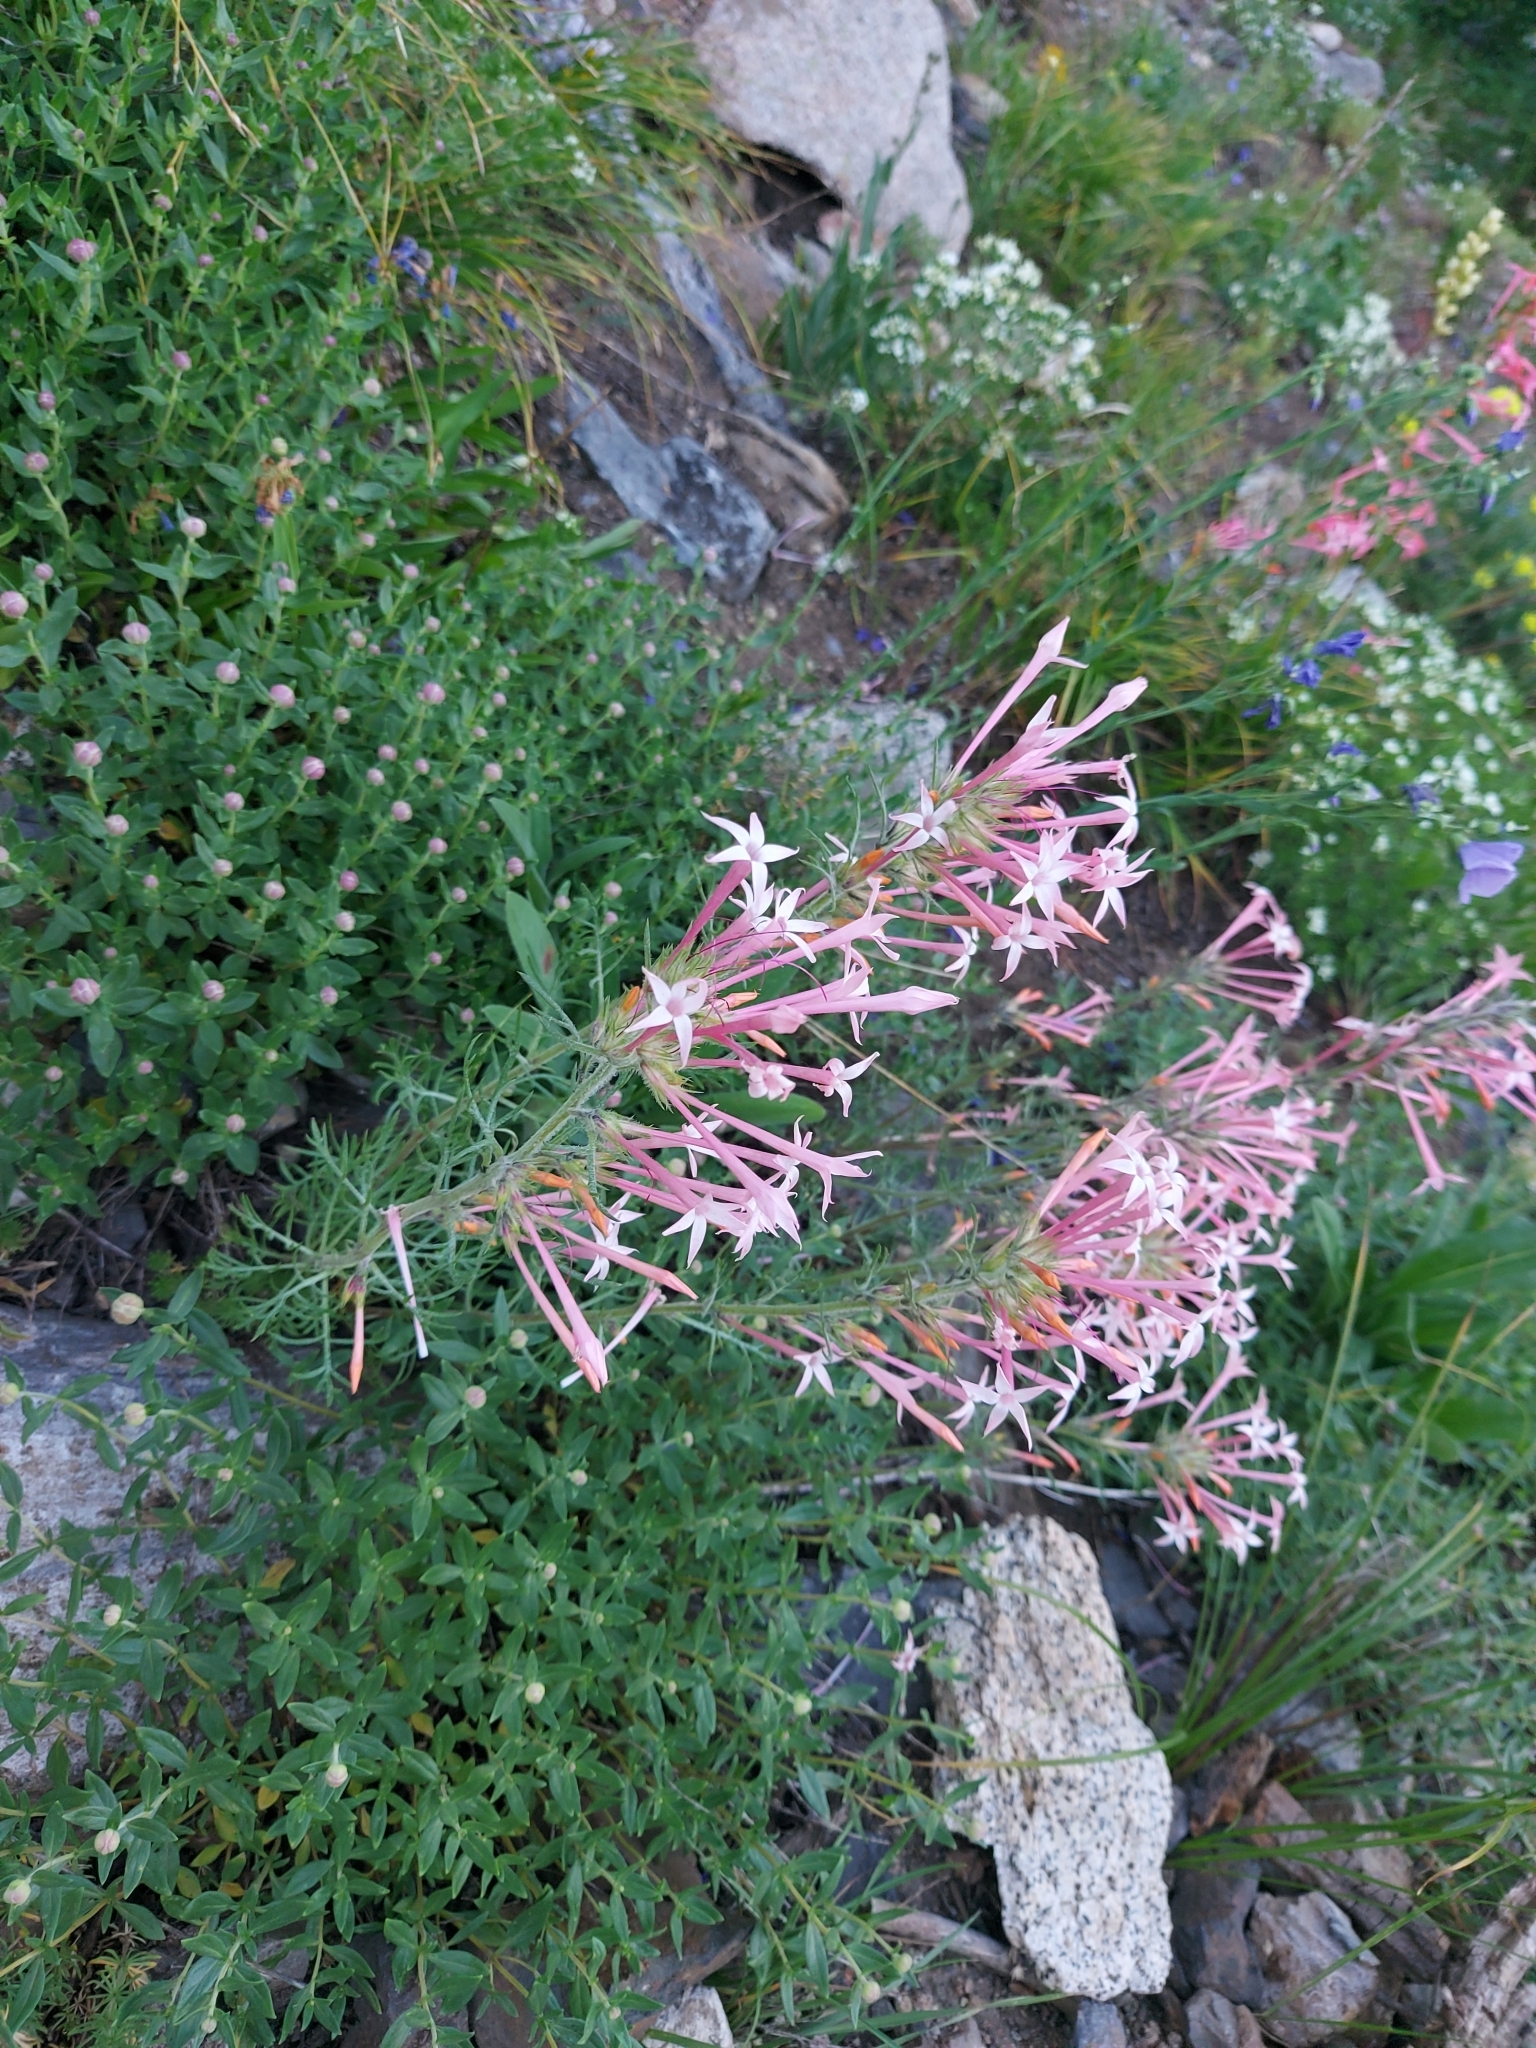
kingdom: Plantae
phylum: Tracheophyta
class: Magnoliopsida
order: Ericales
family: Polemoniaceae
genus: Ipomopsis
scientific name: Ipomopsis tenuituba
